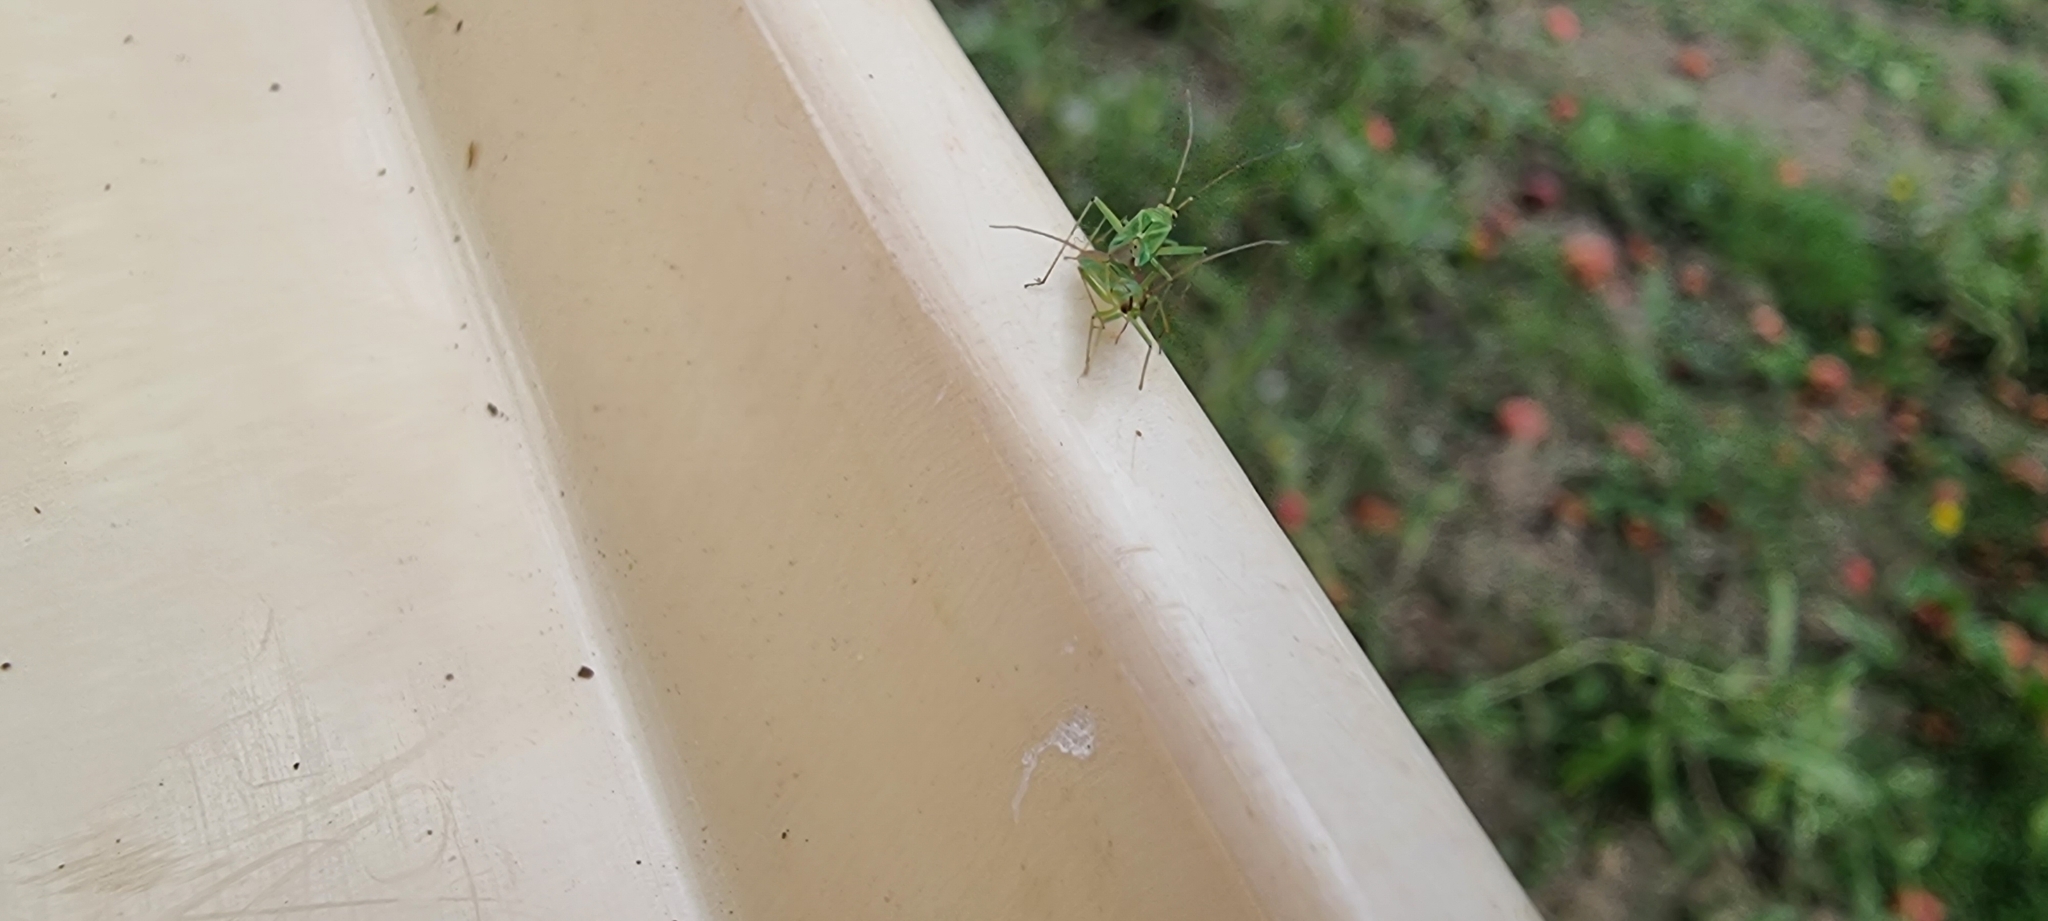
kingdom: Animalia
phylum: Arthropoda
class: Insecta
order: Hemiptera
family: Miridae
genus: Blepharidopterus
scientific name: Blepharidopterus angulatus
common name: Plant bug
